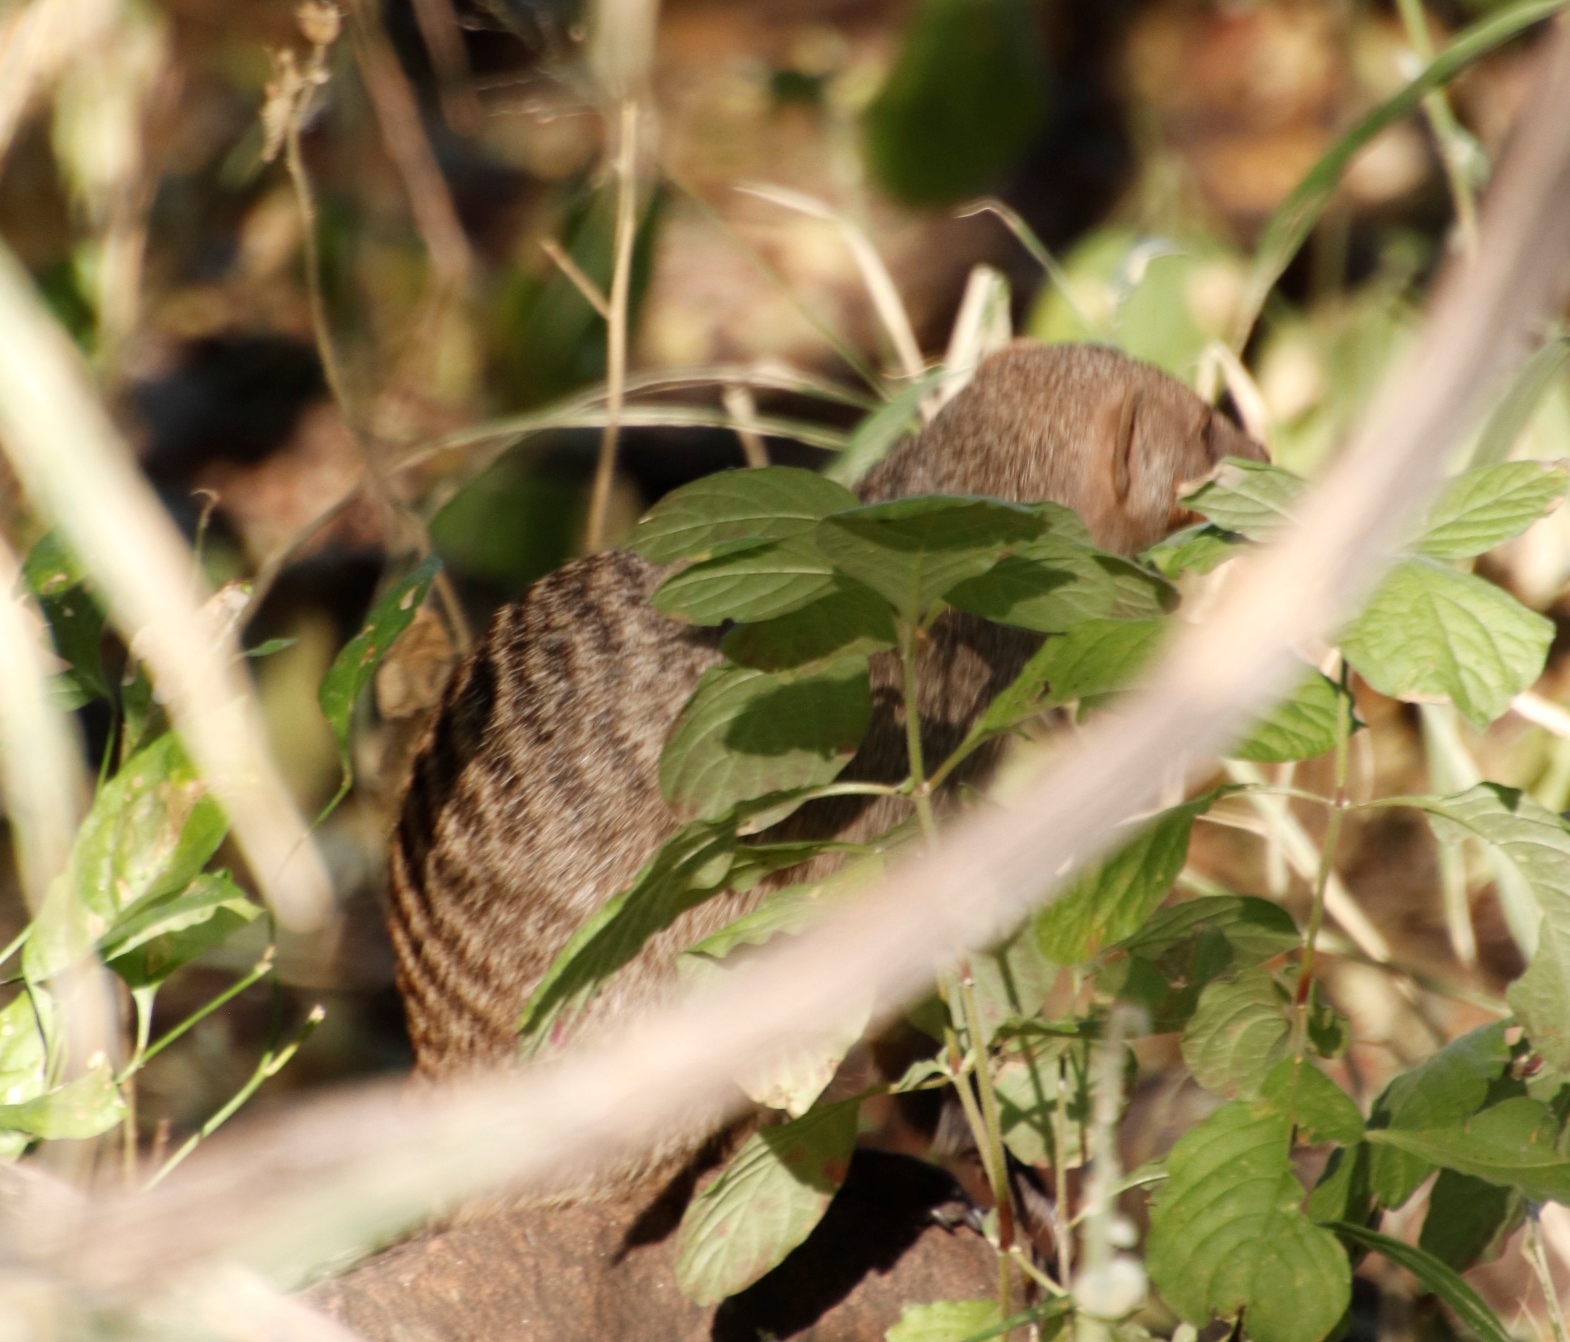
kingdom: Animalia
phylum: Chordata
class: Mammalia
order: Carnivora
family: Herpestidae
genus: Mungos
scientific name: Mungos mungo
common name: Banded mongoose
